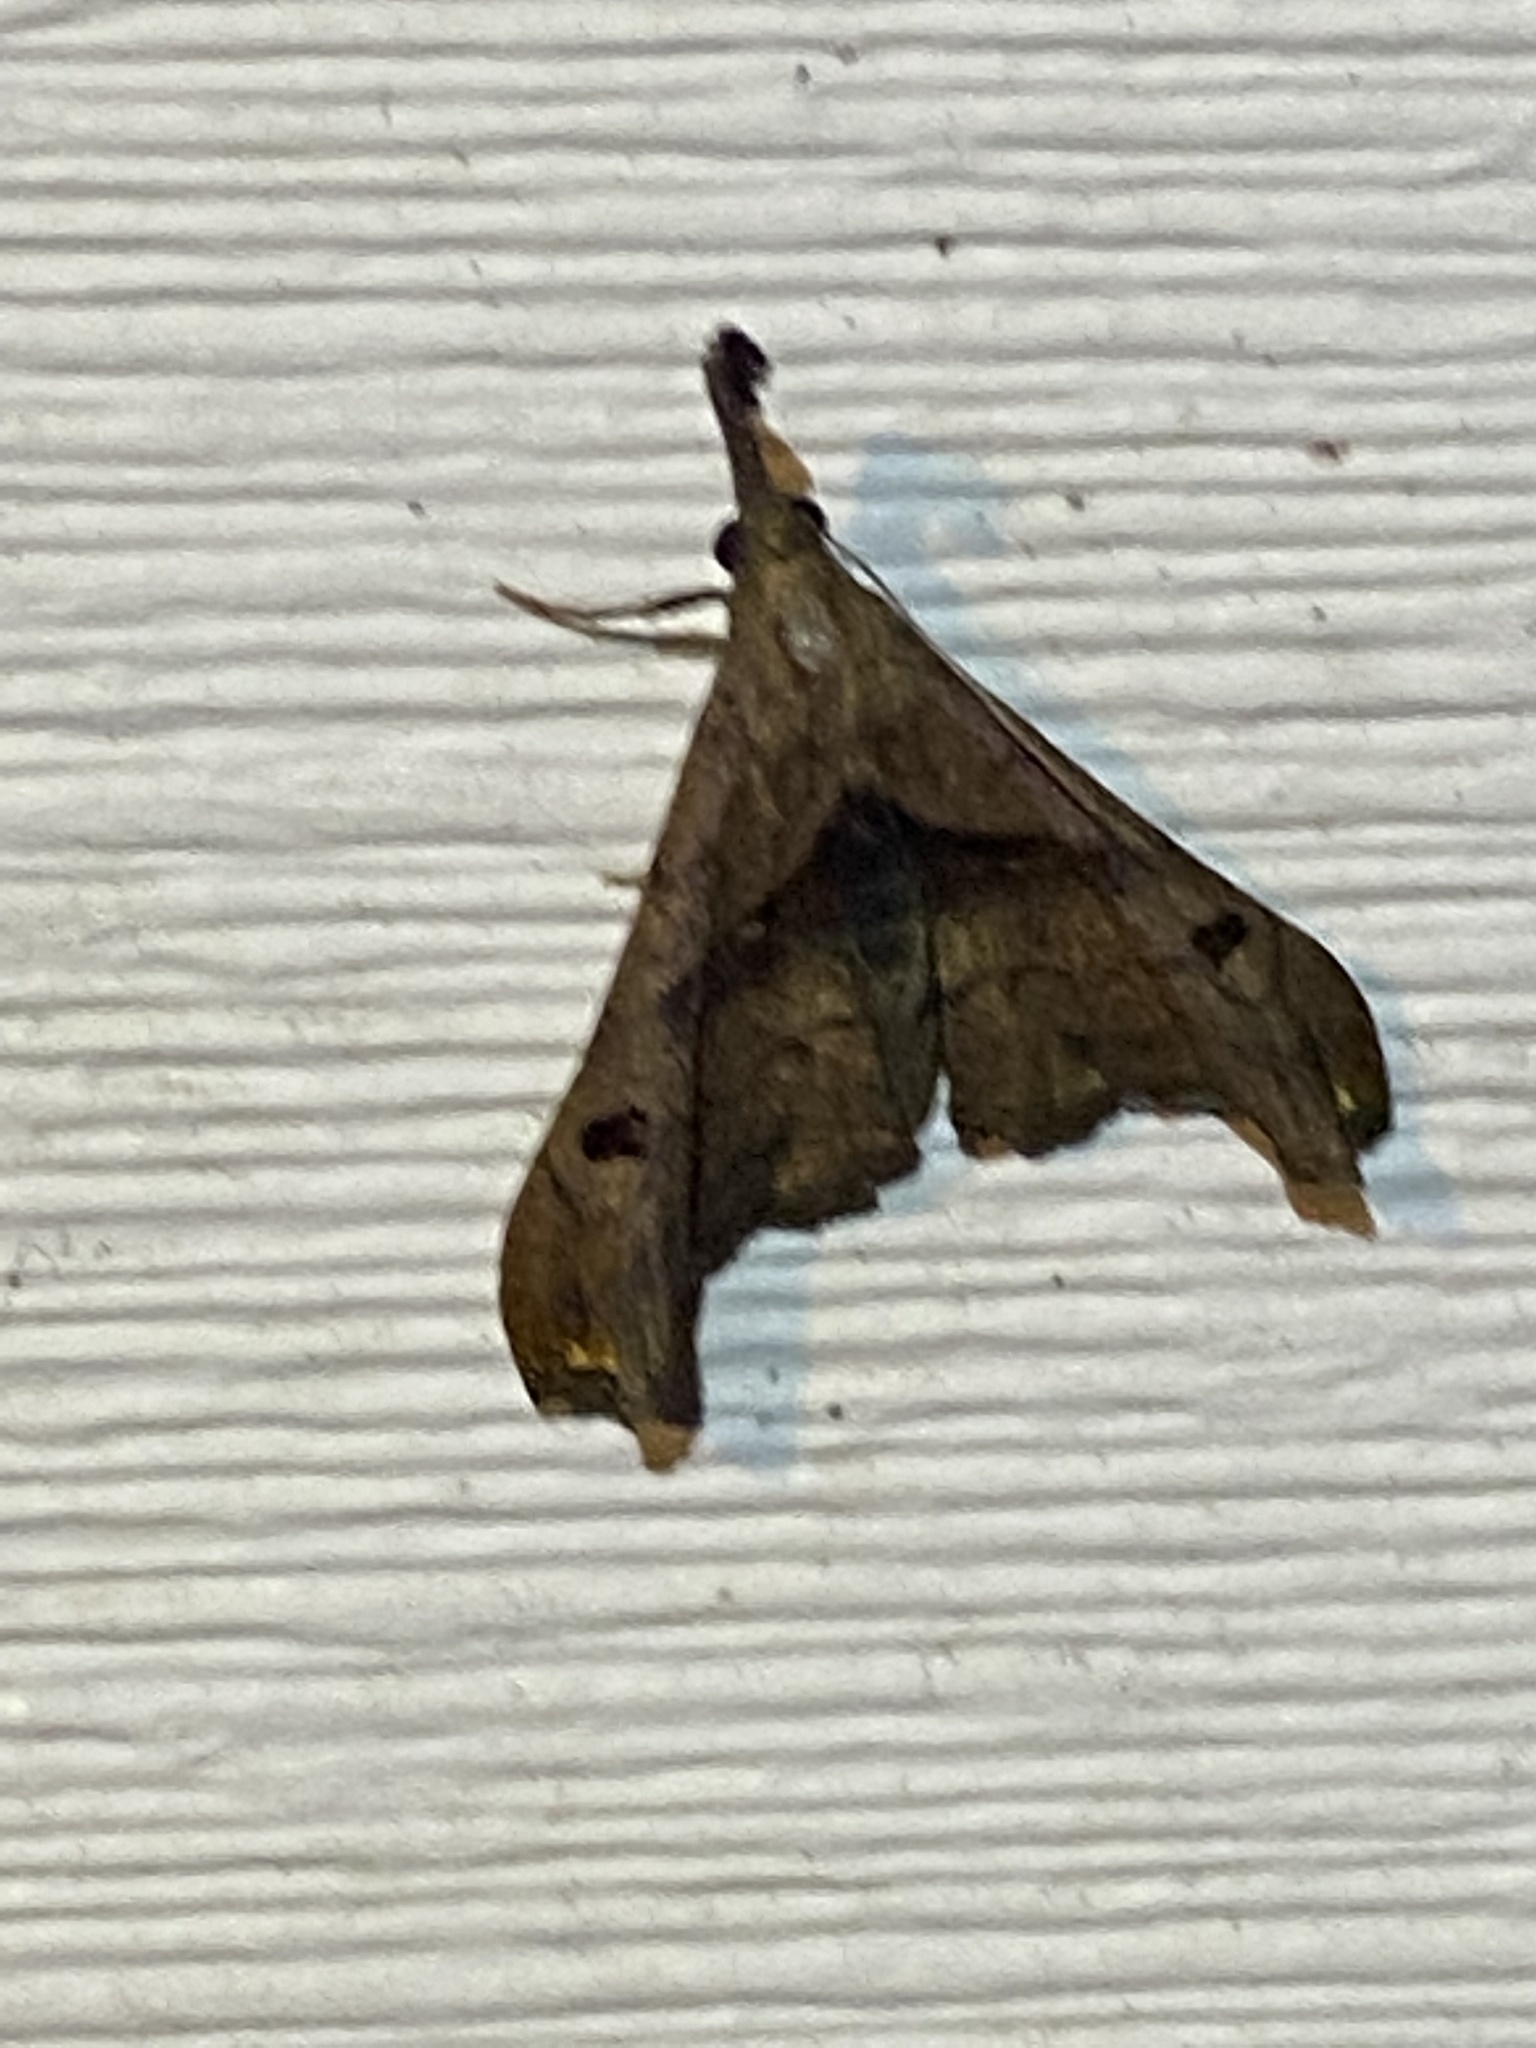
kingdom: Animalia
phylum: Arthropoda
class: Insecta
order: Lepidoptera
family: Erebidae
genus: Palthis
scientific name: Palthis angulalis
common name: Dark-spotted palthis moth
